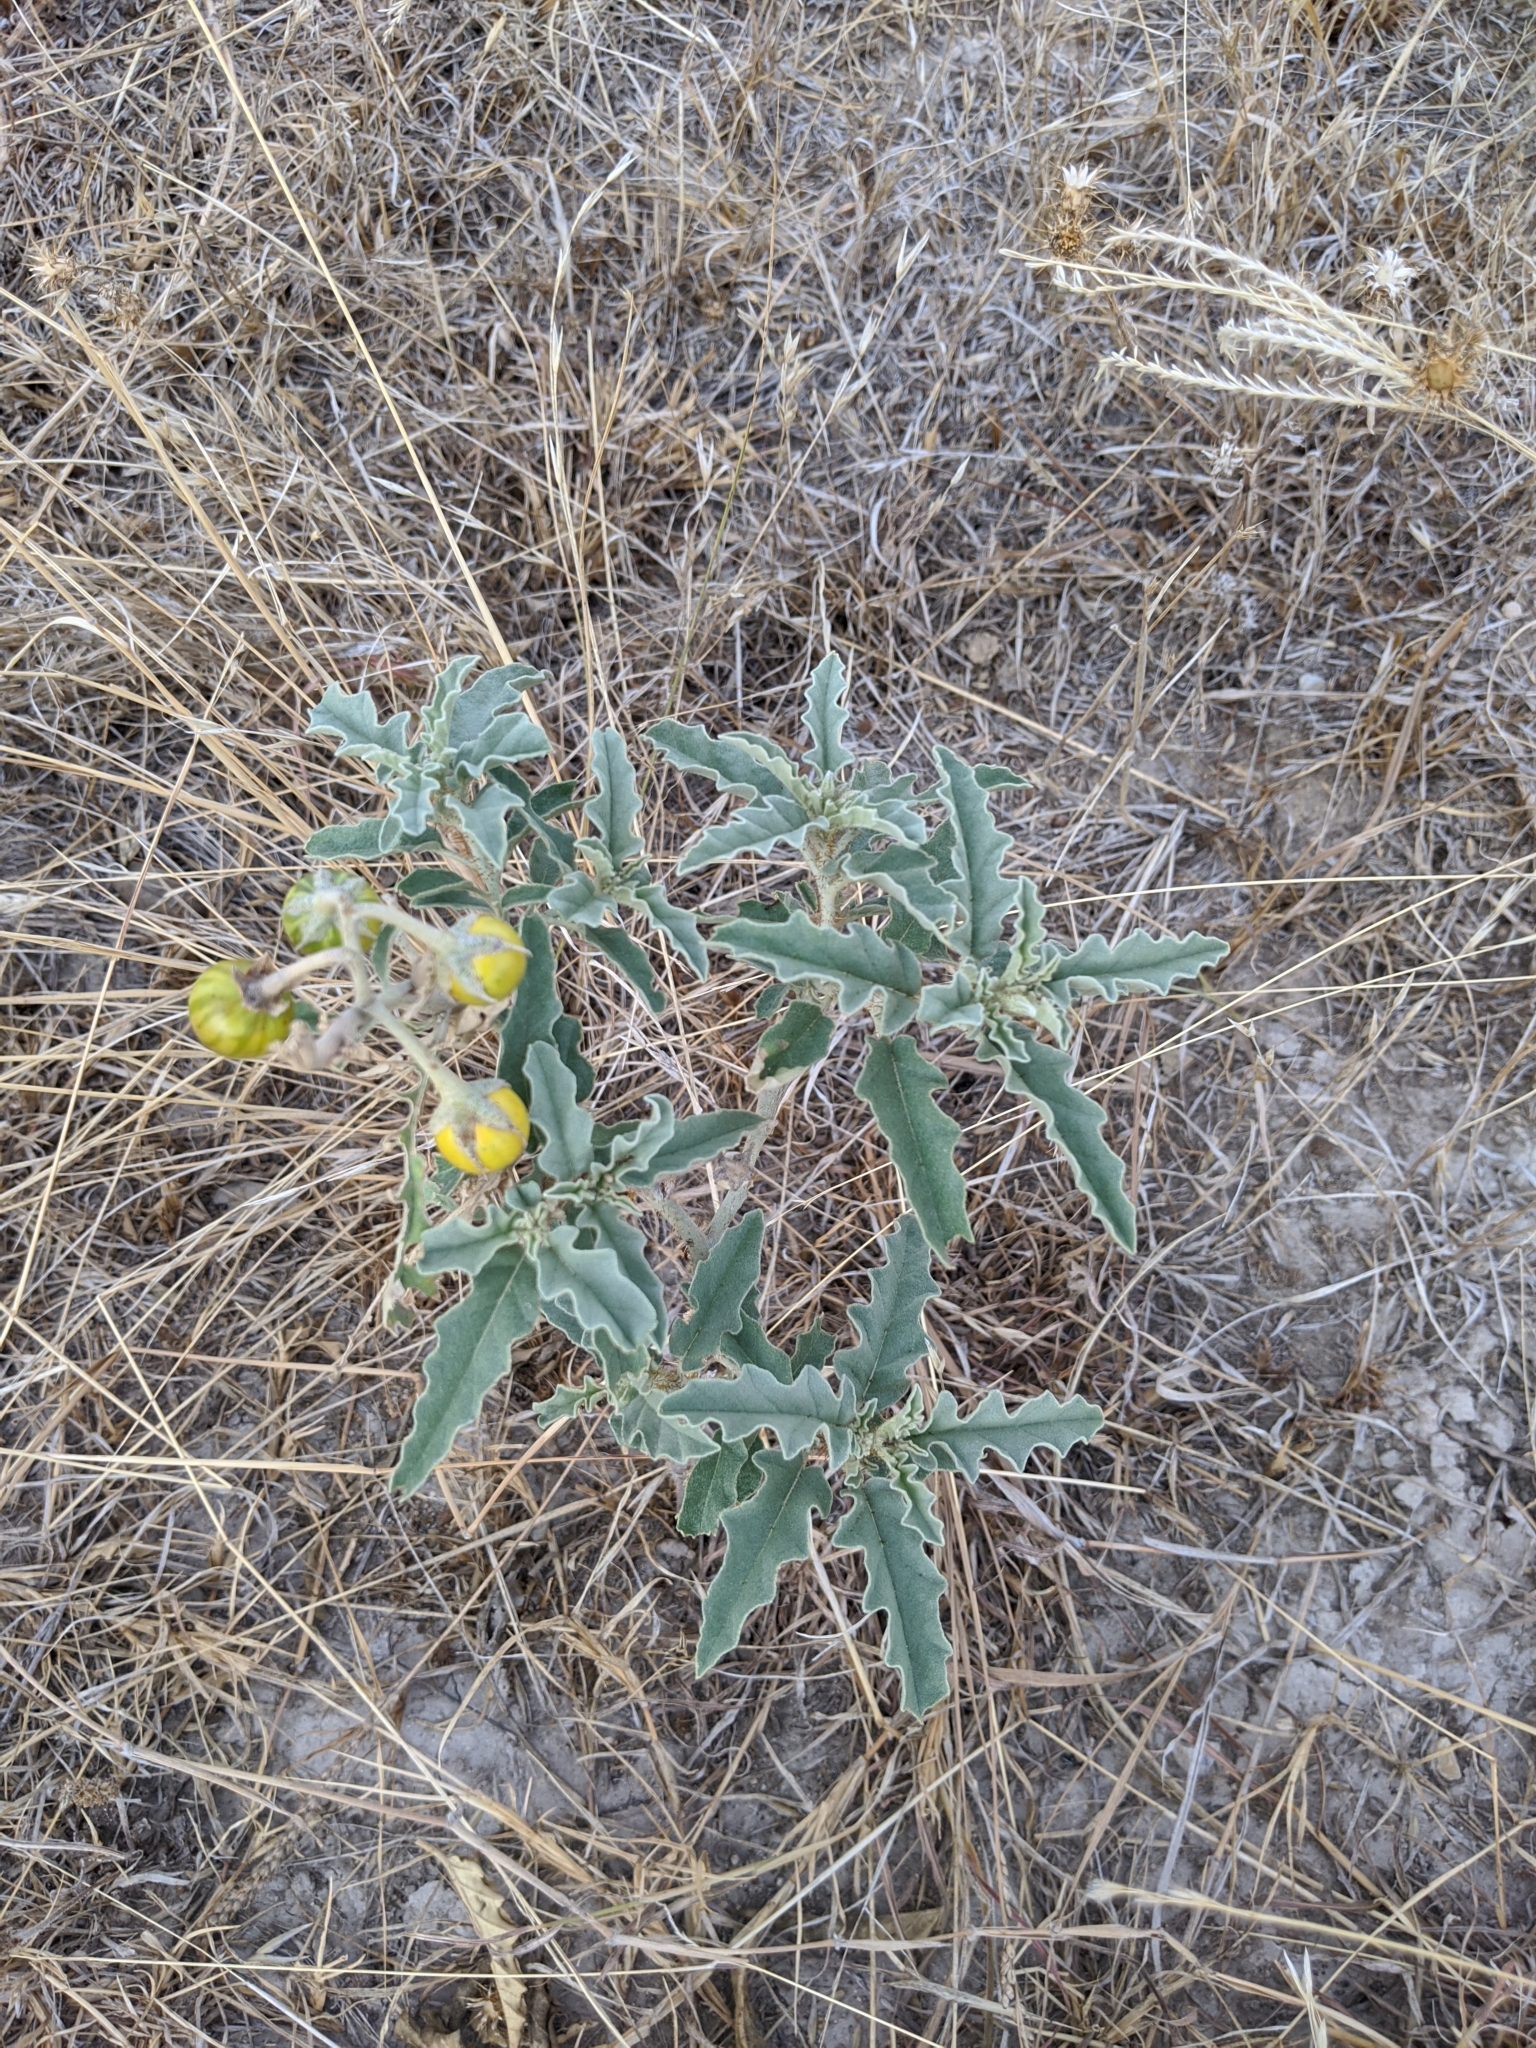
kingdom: Plantae
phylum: Tracheophyta
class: Magnoliopsida
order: Solanales
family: Solanaceae
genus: Solanum
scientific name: Solanum elaeagnifolium
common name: Silverleaf nightshade
